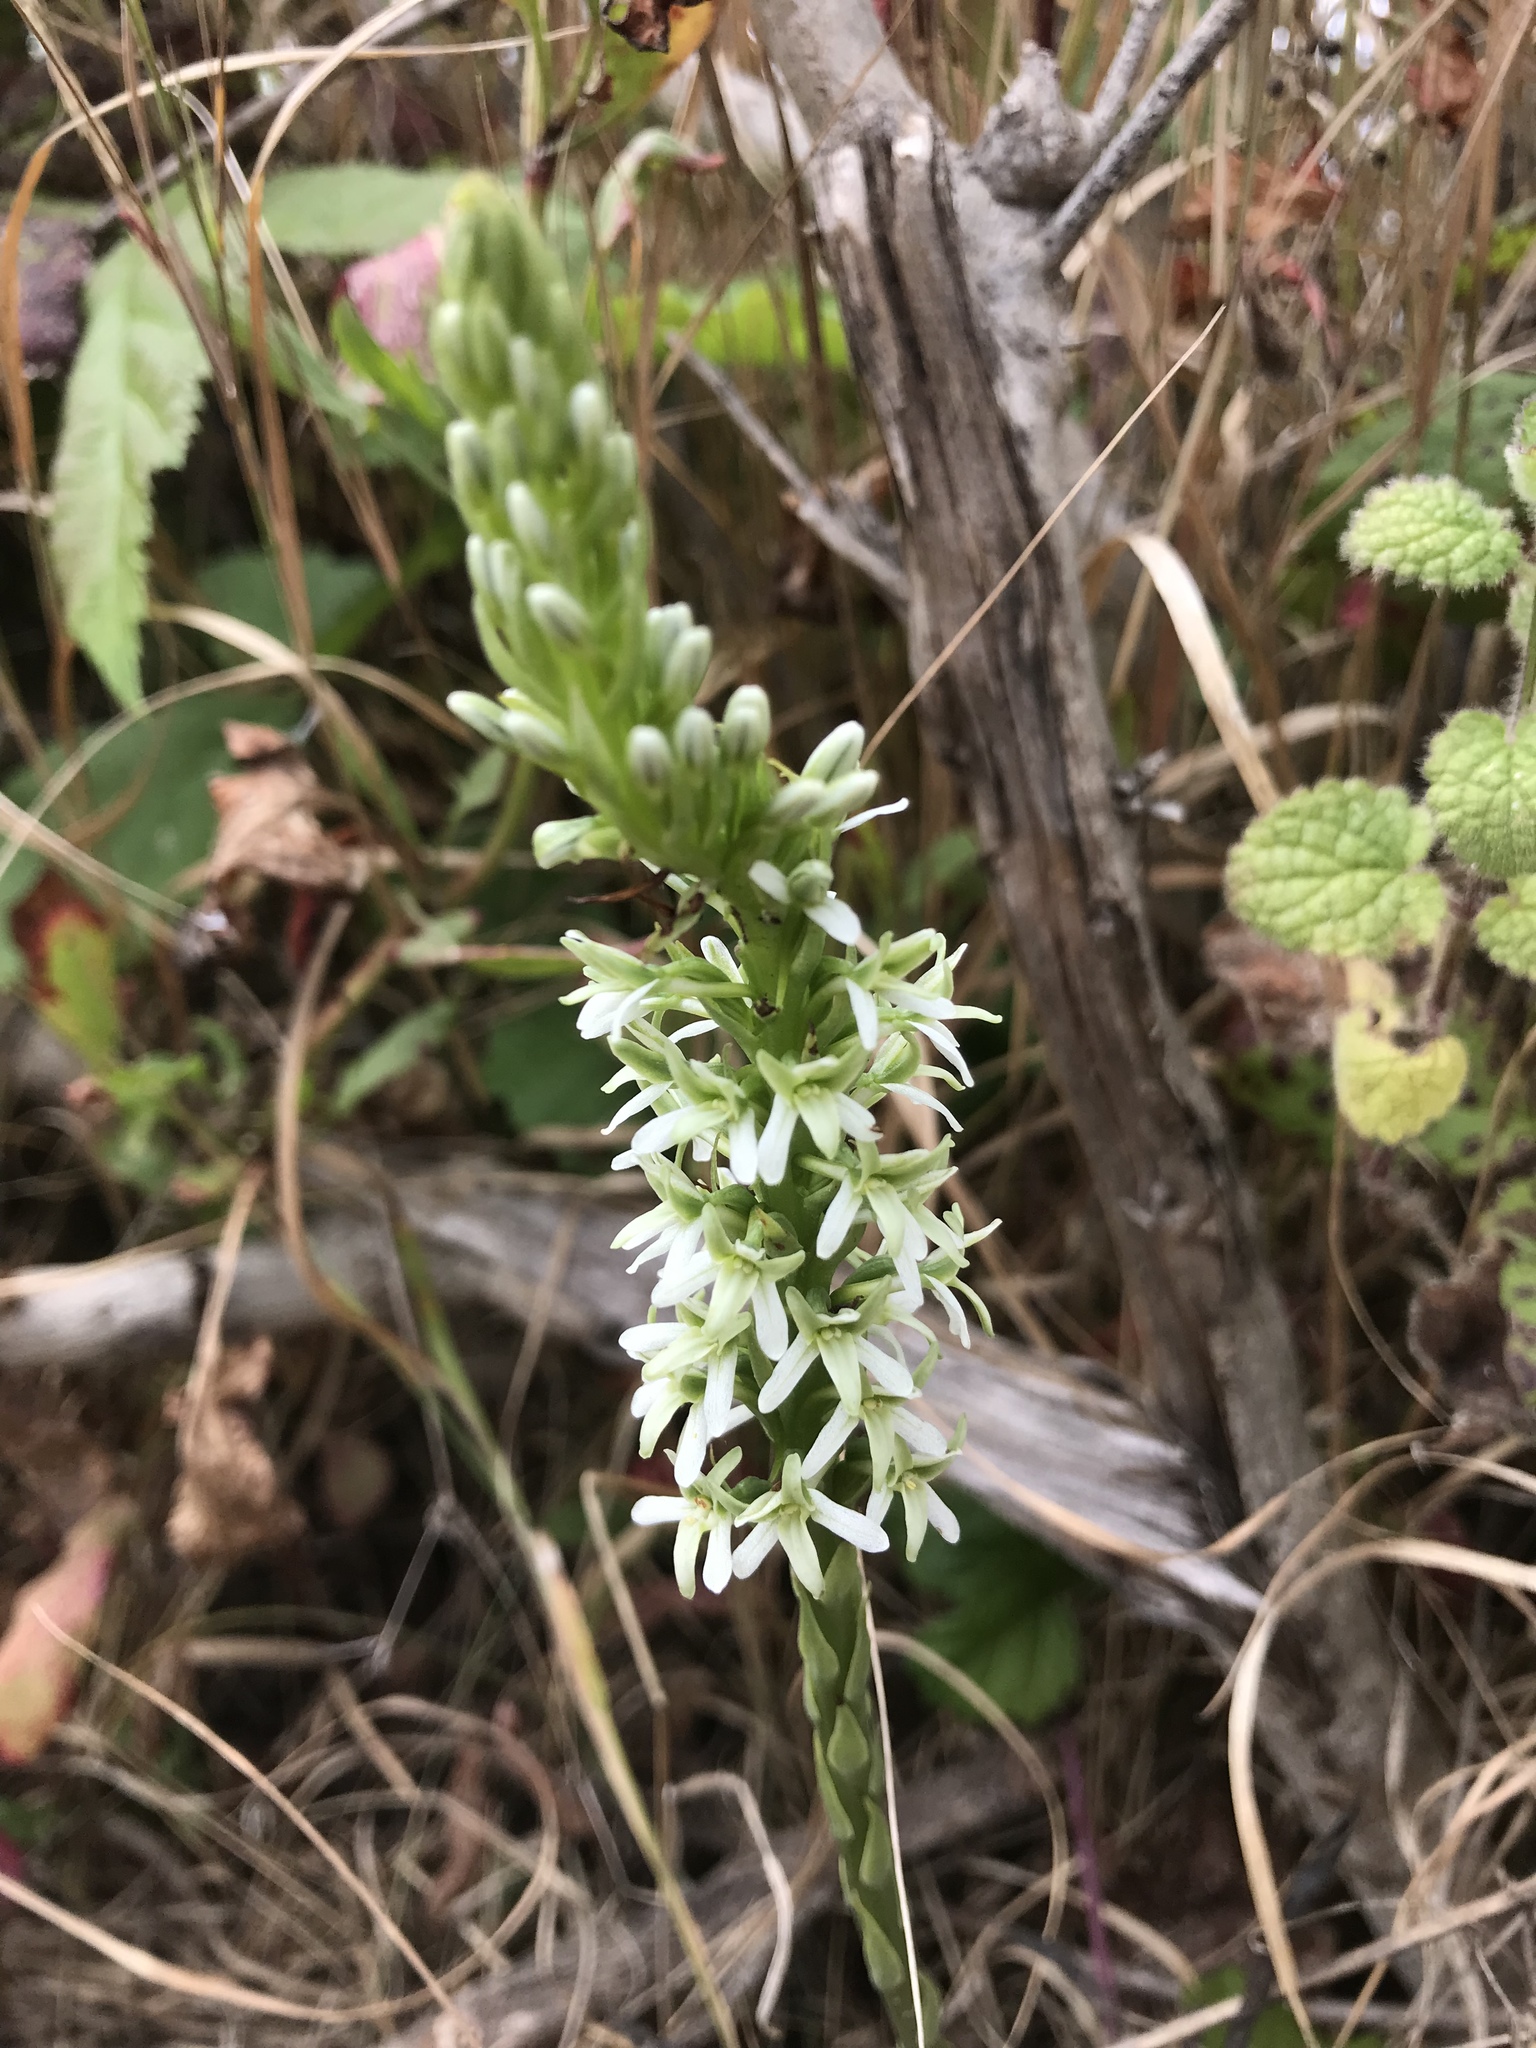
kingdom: Plantae
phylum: Tracheophyta
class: Liliopsida
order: Asparagales
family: Orchidaceae
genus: Platanthera
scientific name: Platanthera elegans
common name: Coast piperia
